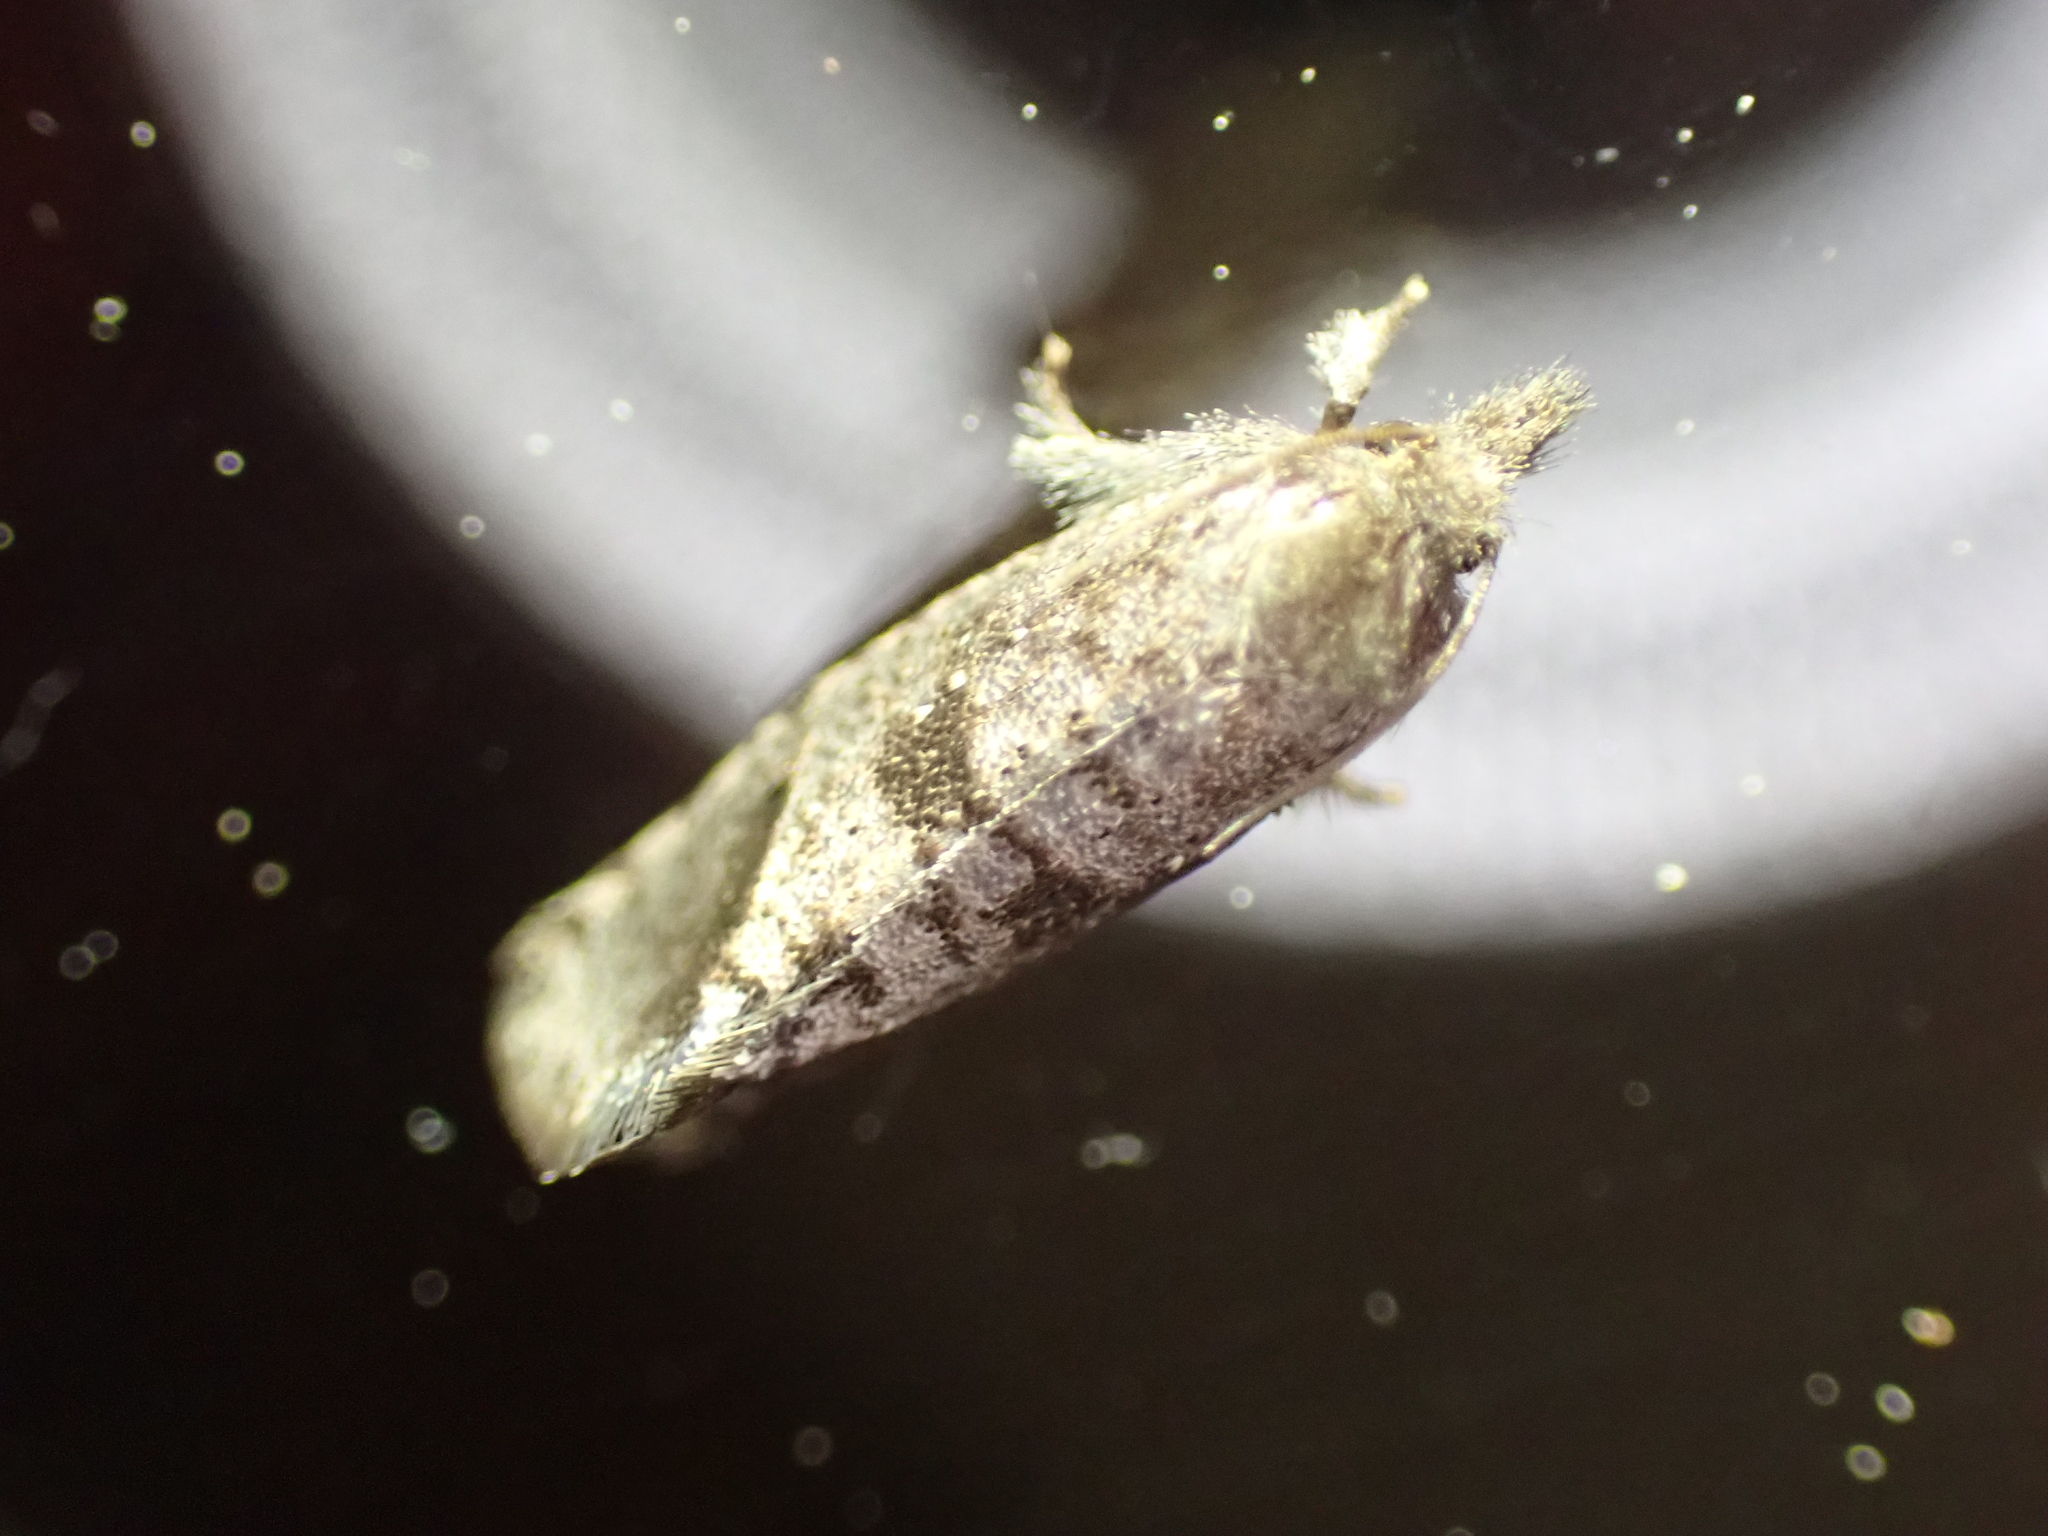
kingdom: Animalia
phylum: Arthropoda
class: Insecta
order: Lepidoptera
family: Tineidae
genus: Acrolophus
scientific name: Acrolophus texanella
